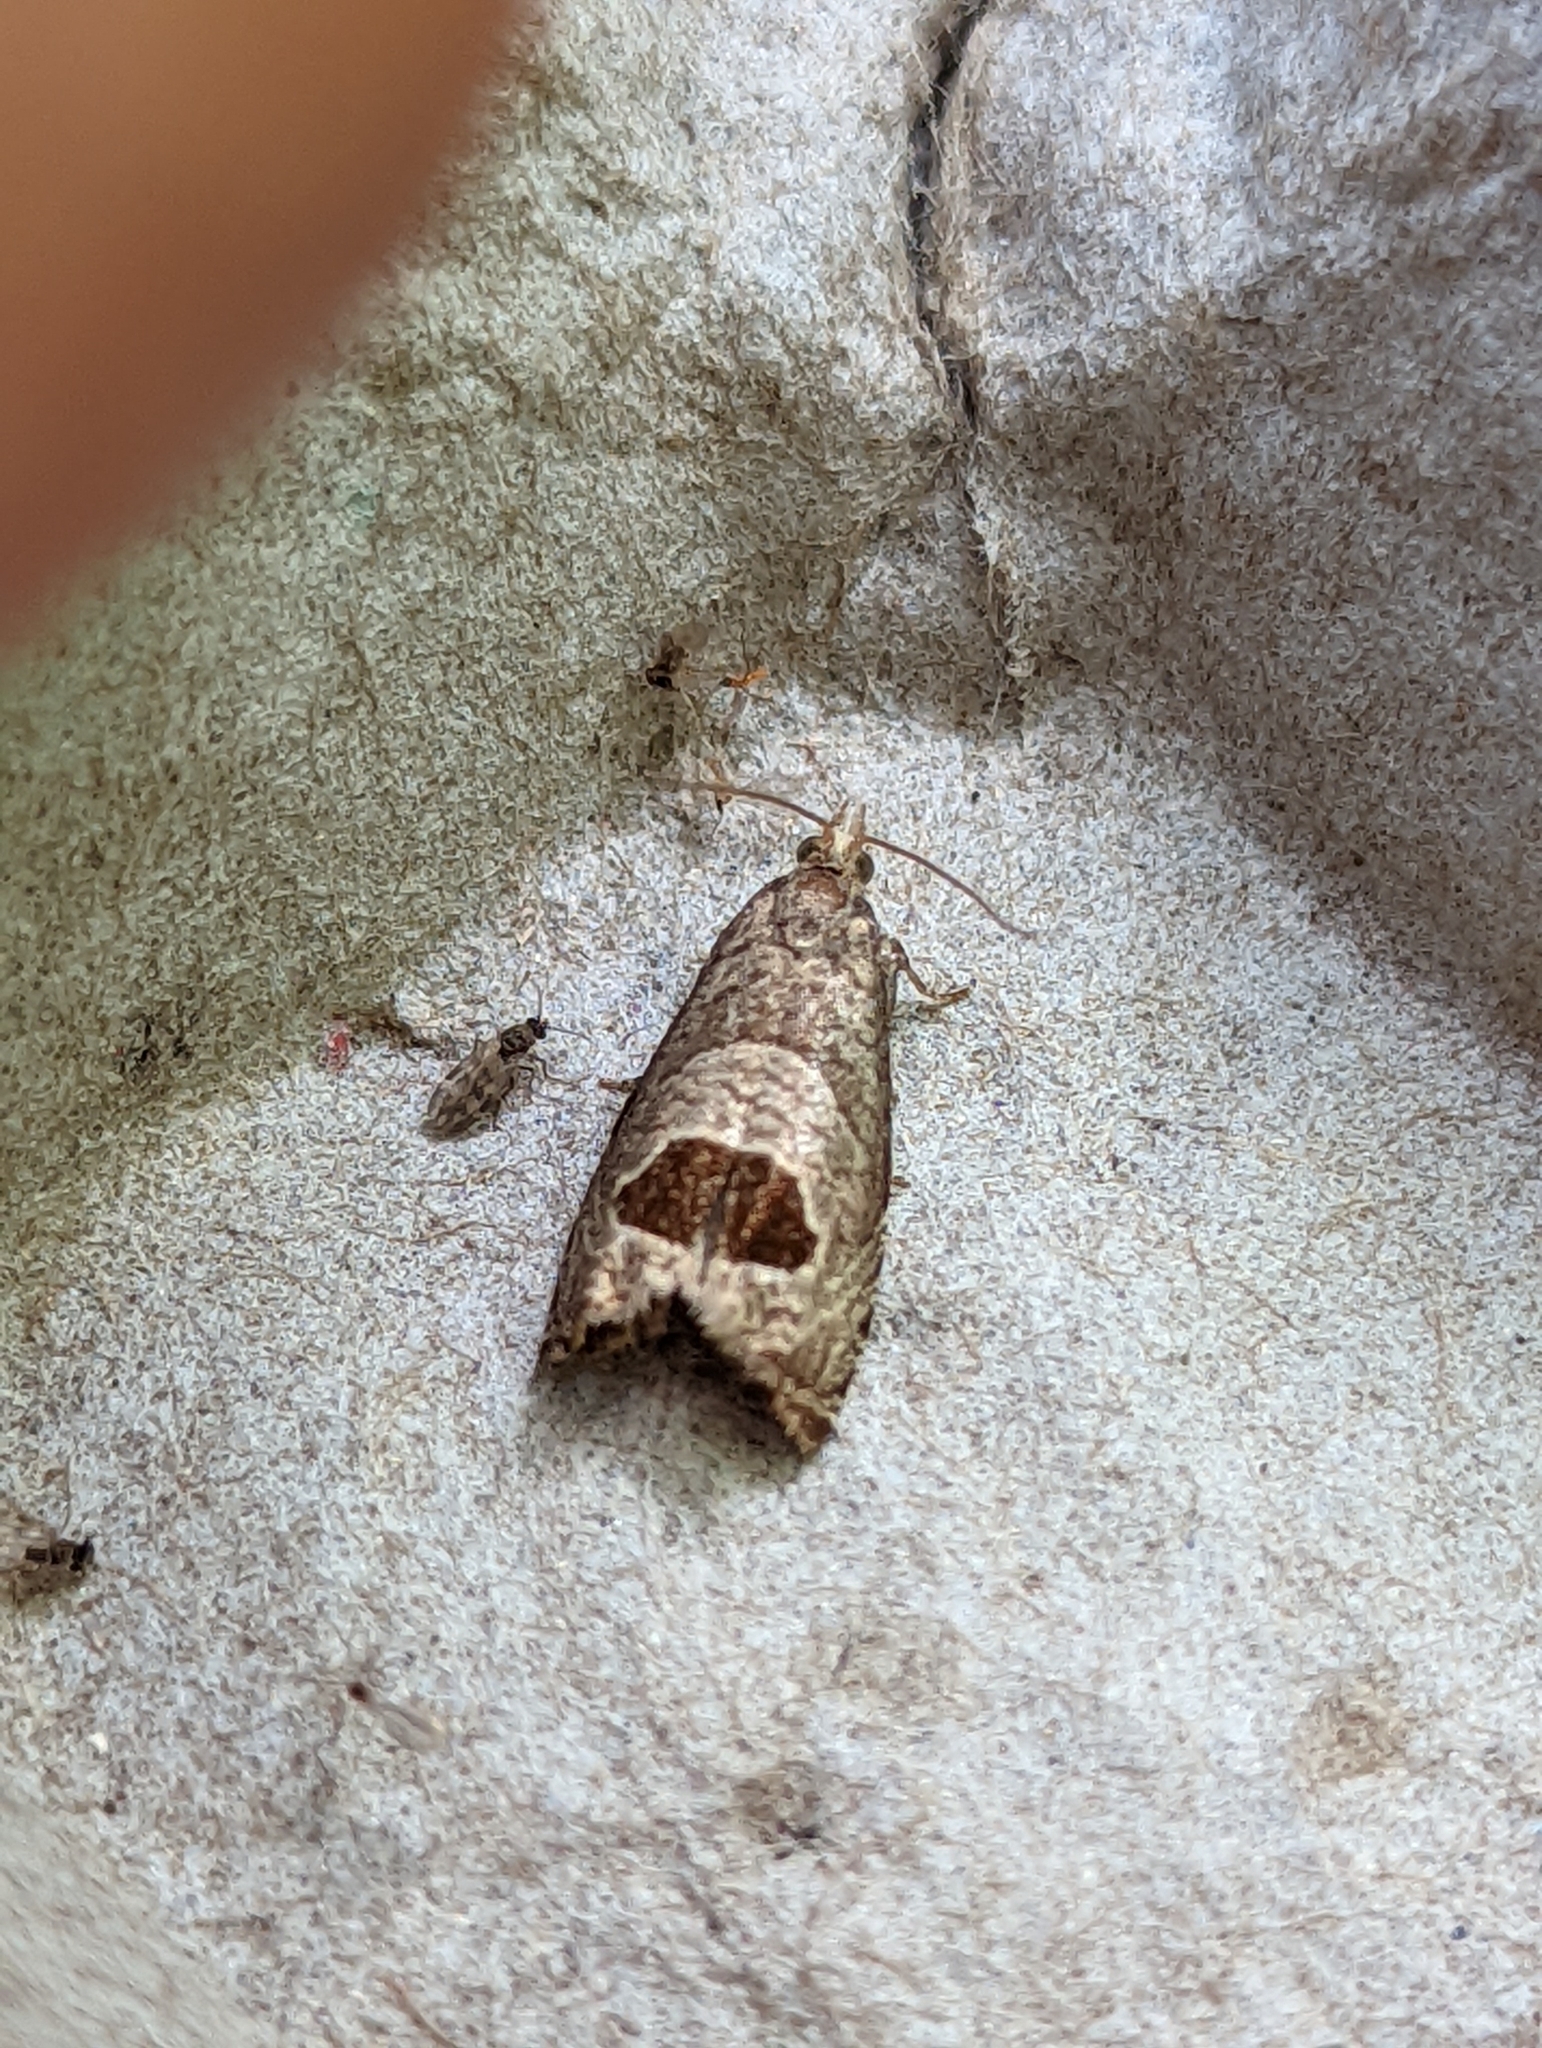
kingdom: Animalia
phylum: Arthropoda
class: Insecta
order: Lepidoptera
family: Tortricidae
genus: Notocelia
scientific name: Notocelia uddmanniana
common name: Bramble shoot moth
